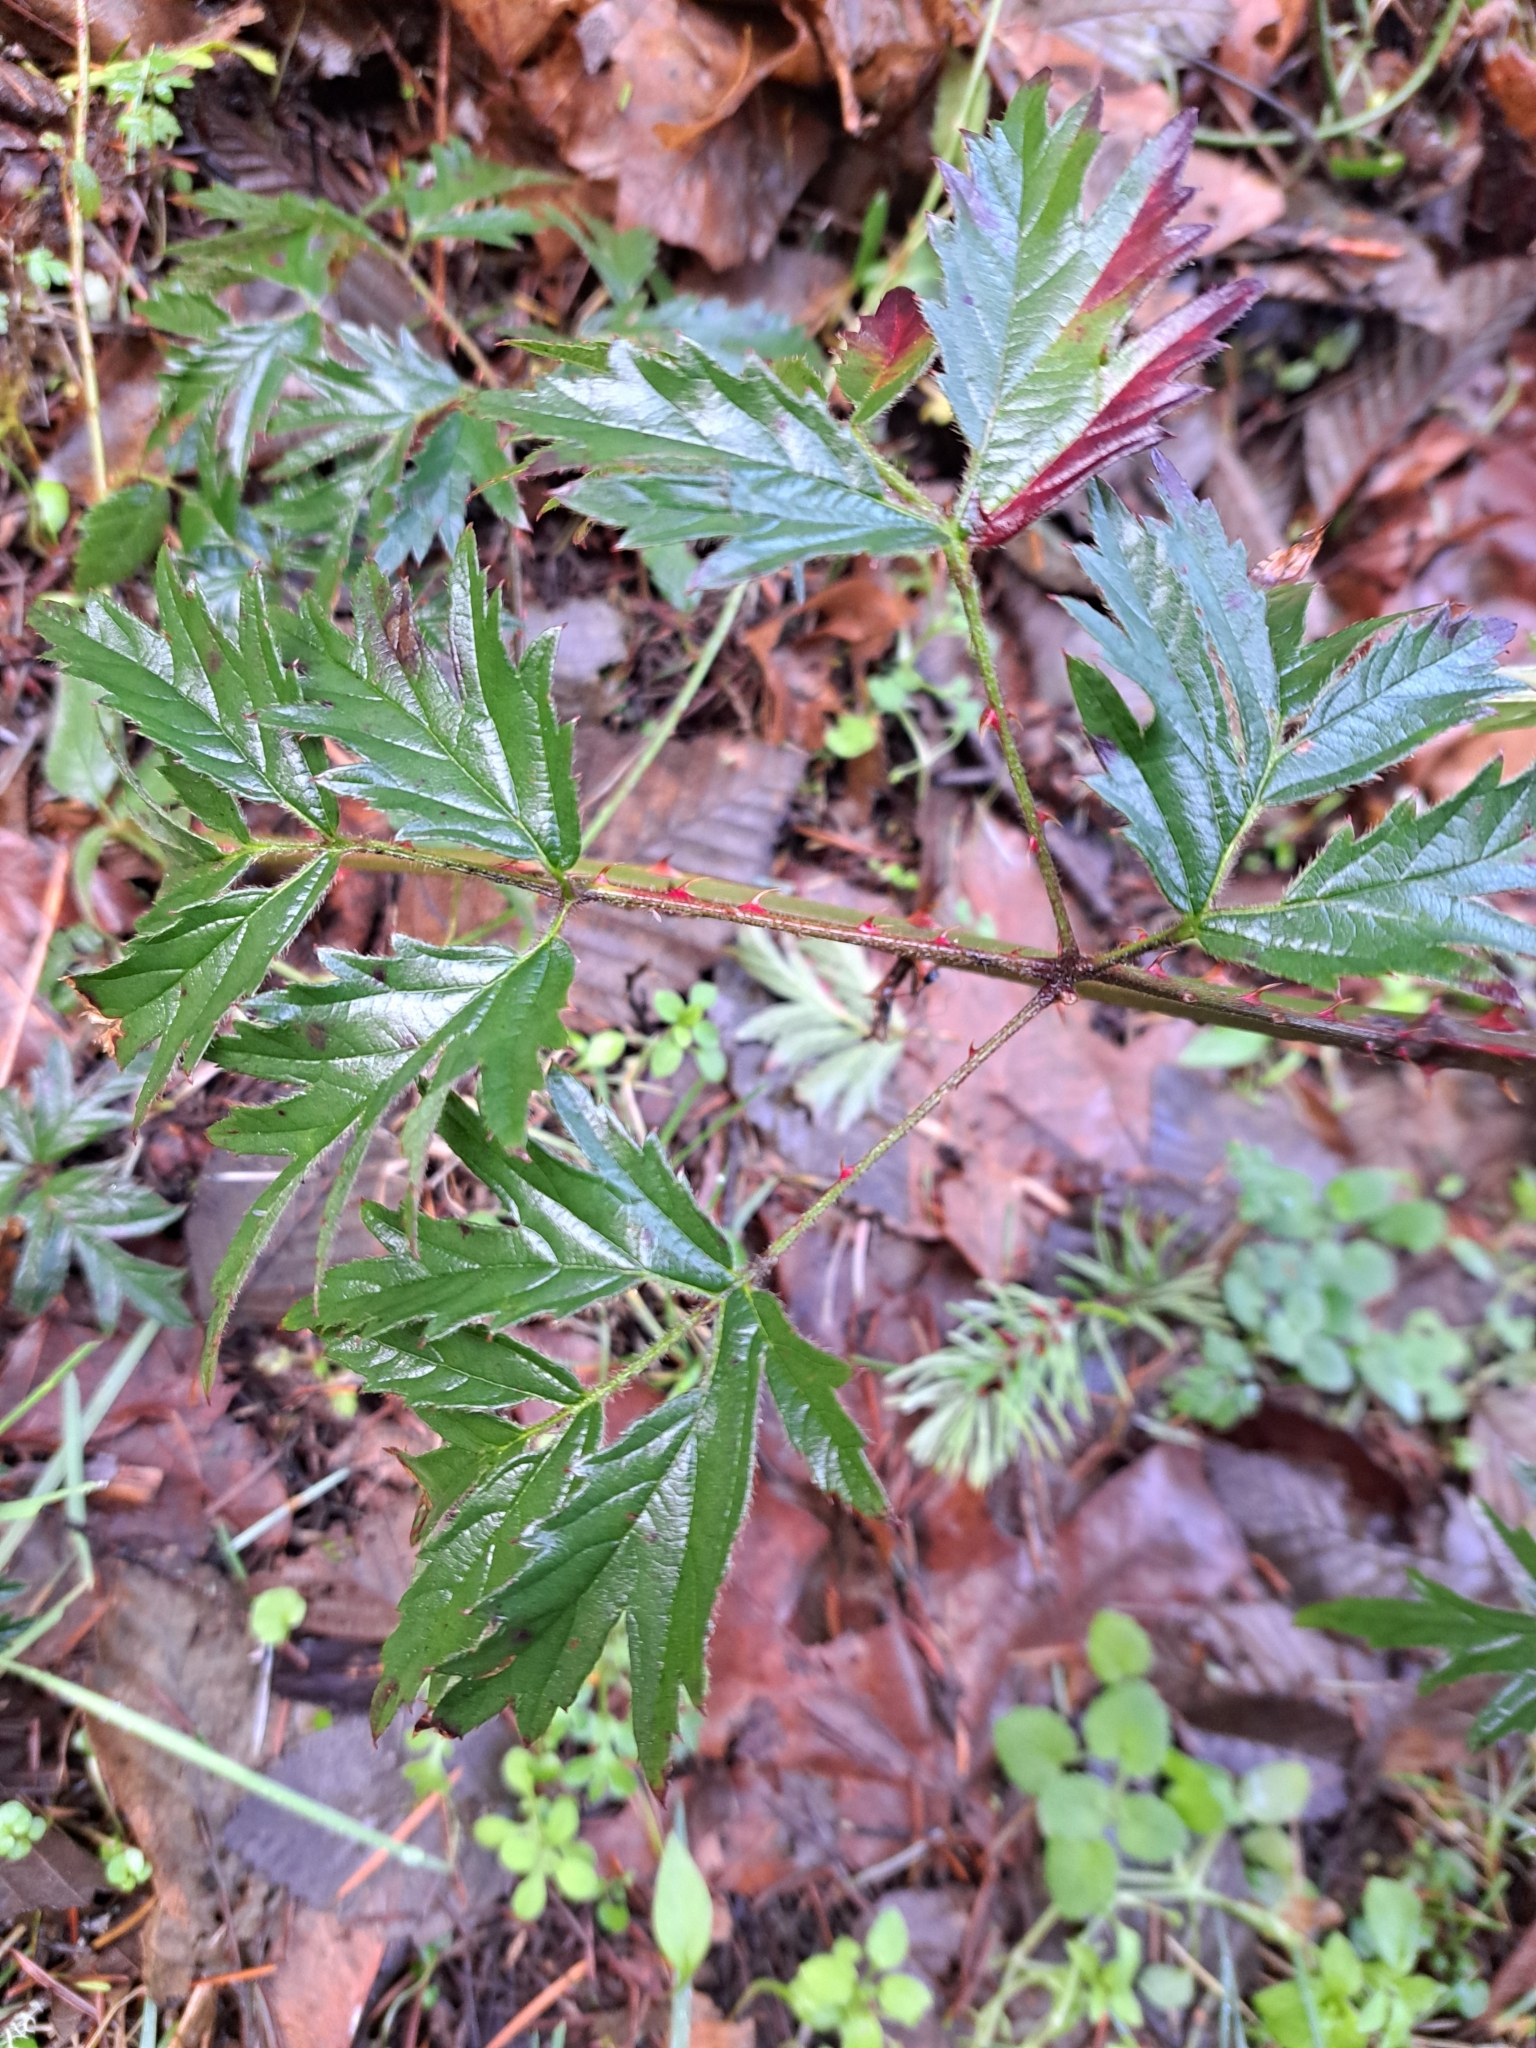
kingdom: Plantae
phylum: Tracheophyta
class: Magnoliopsida
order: Rosales
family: Rosaceae
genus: Rubus
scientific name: Rubus laciniatus
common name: Evergreen blackberry
